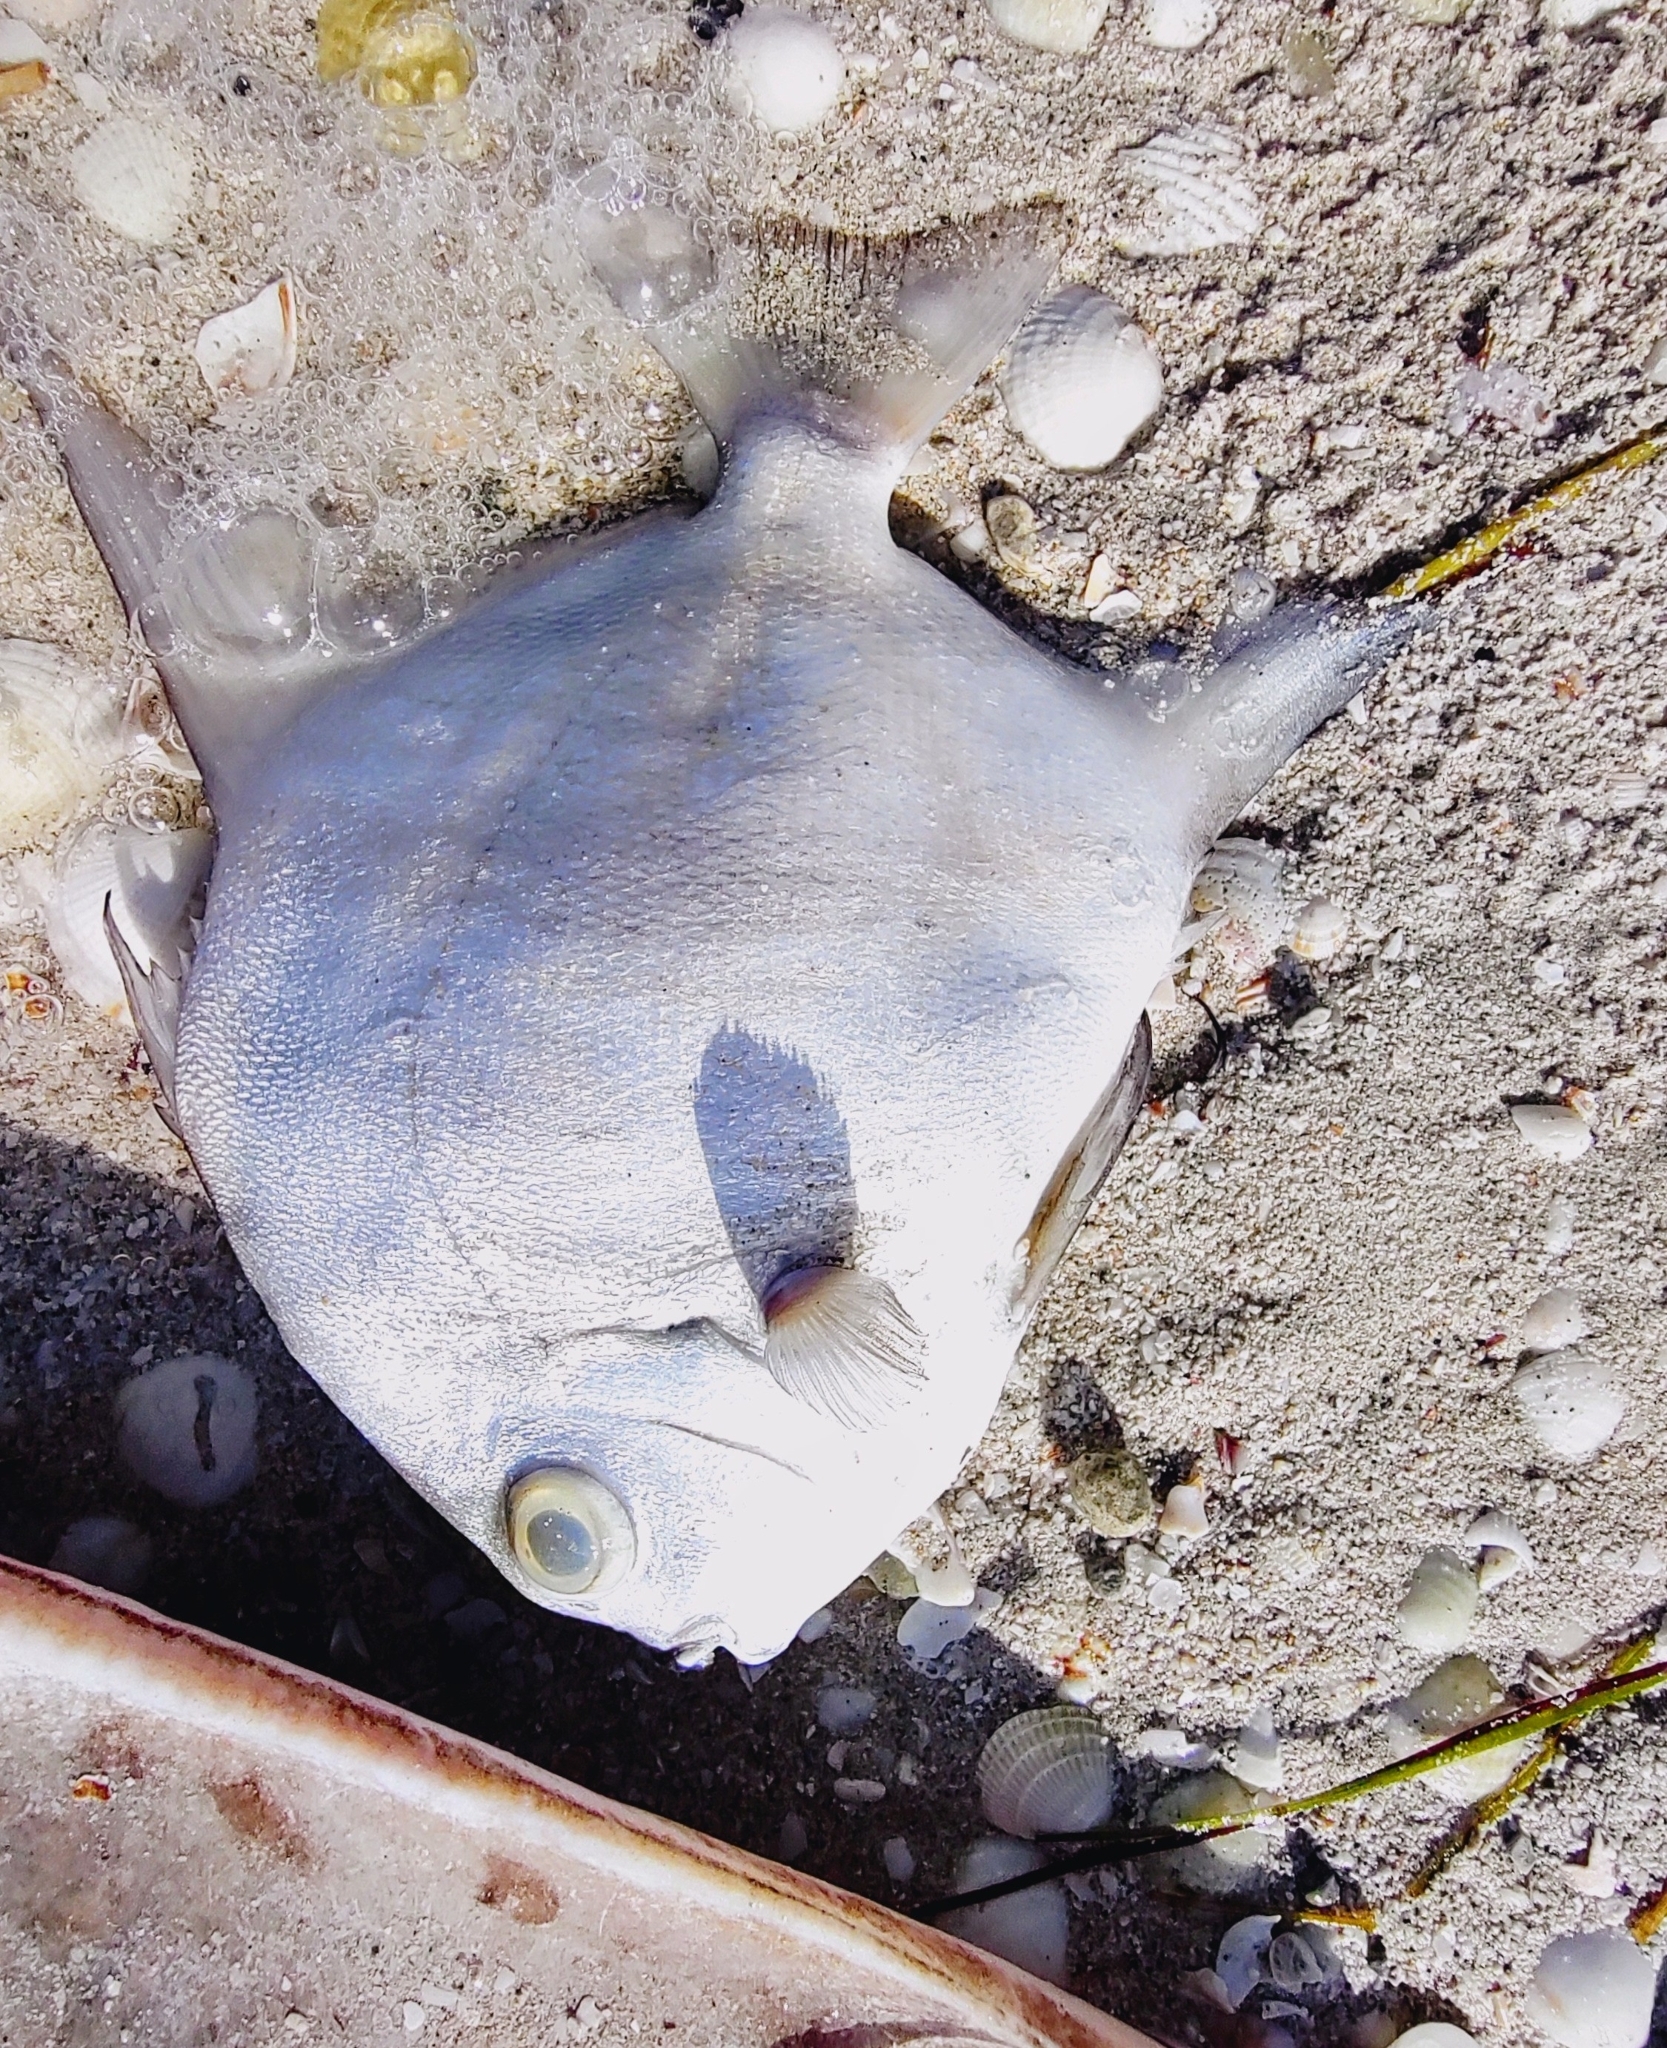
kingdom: Animalia
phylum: Chordata
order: Perciformes
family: Ephippidae
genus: Chaetodipterus
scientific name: Chaetodipterus faber
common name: Ocean cobbler
